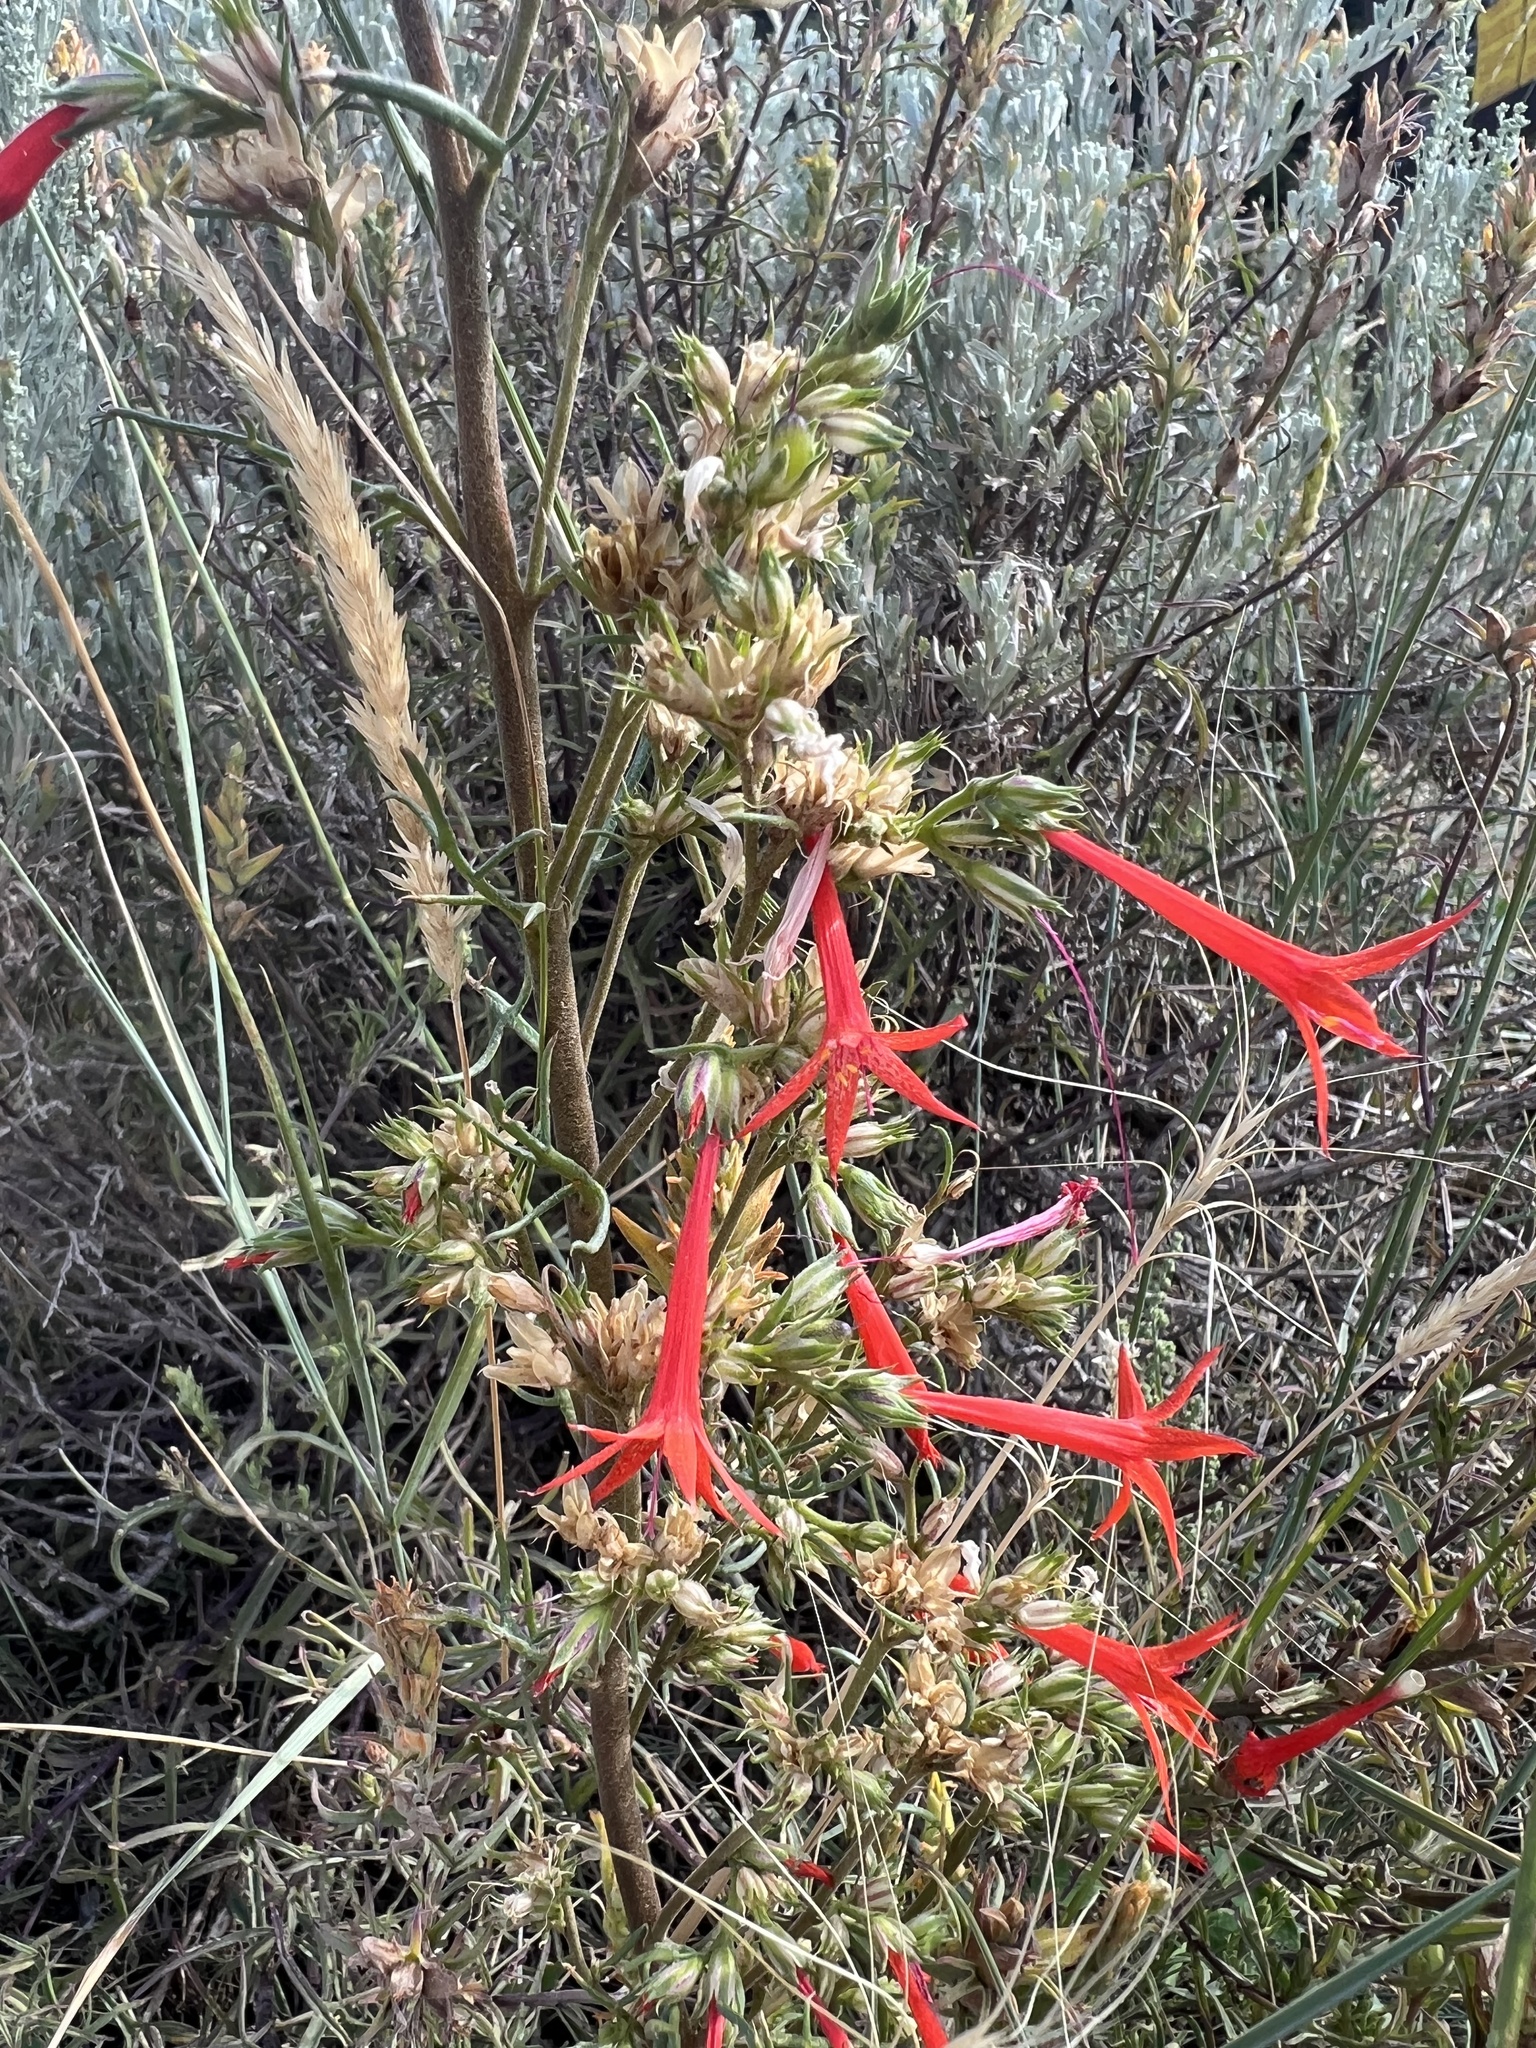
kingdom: Plantae
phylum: Tracheophyta
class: Magnoliopsida
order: Ericales
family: Polemoniaceae
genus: Ipomopsis
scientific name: Ipomopsis aggregata
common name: Scarlet gilia
